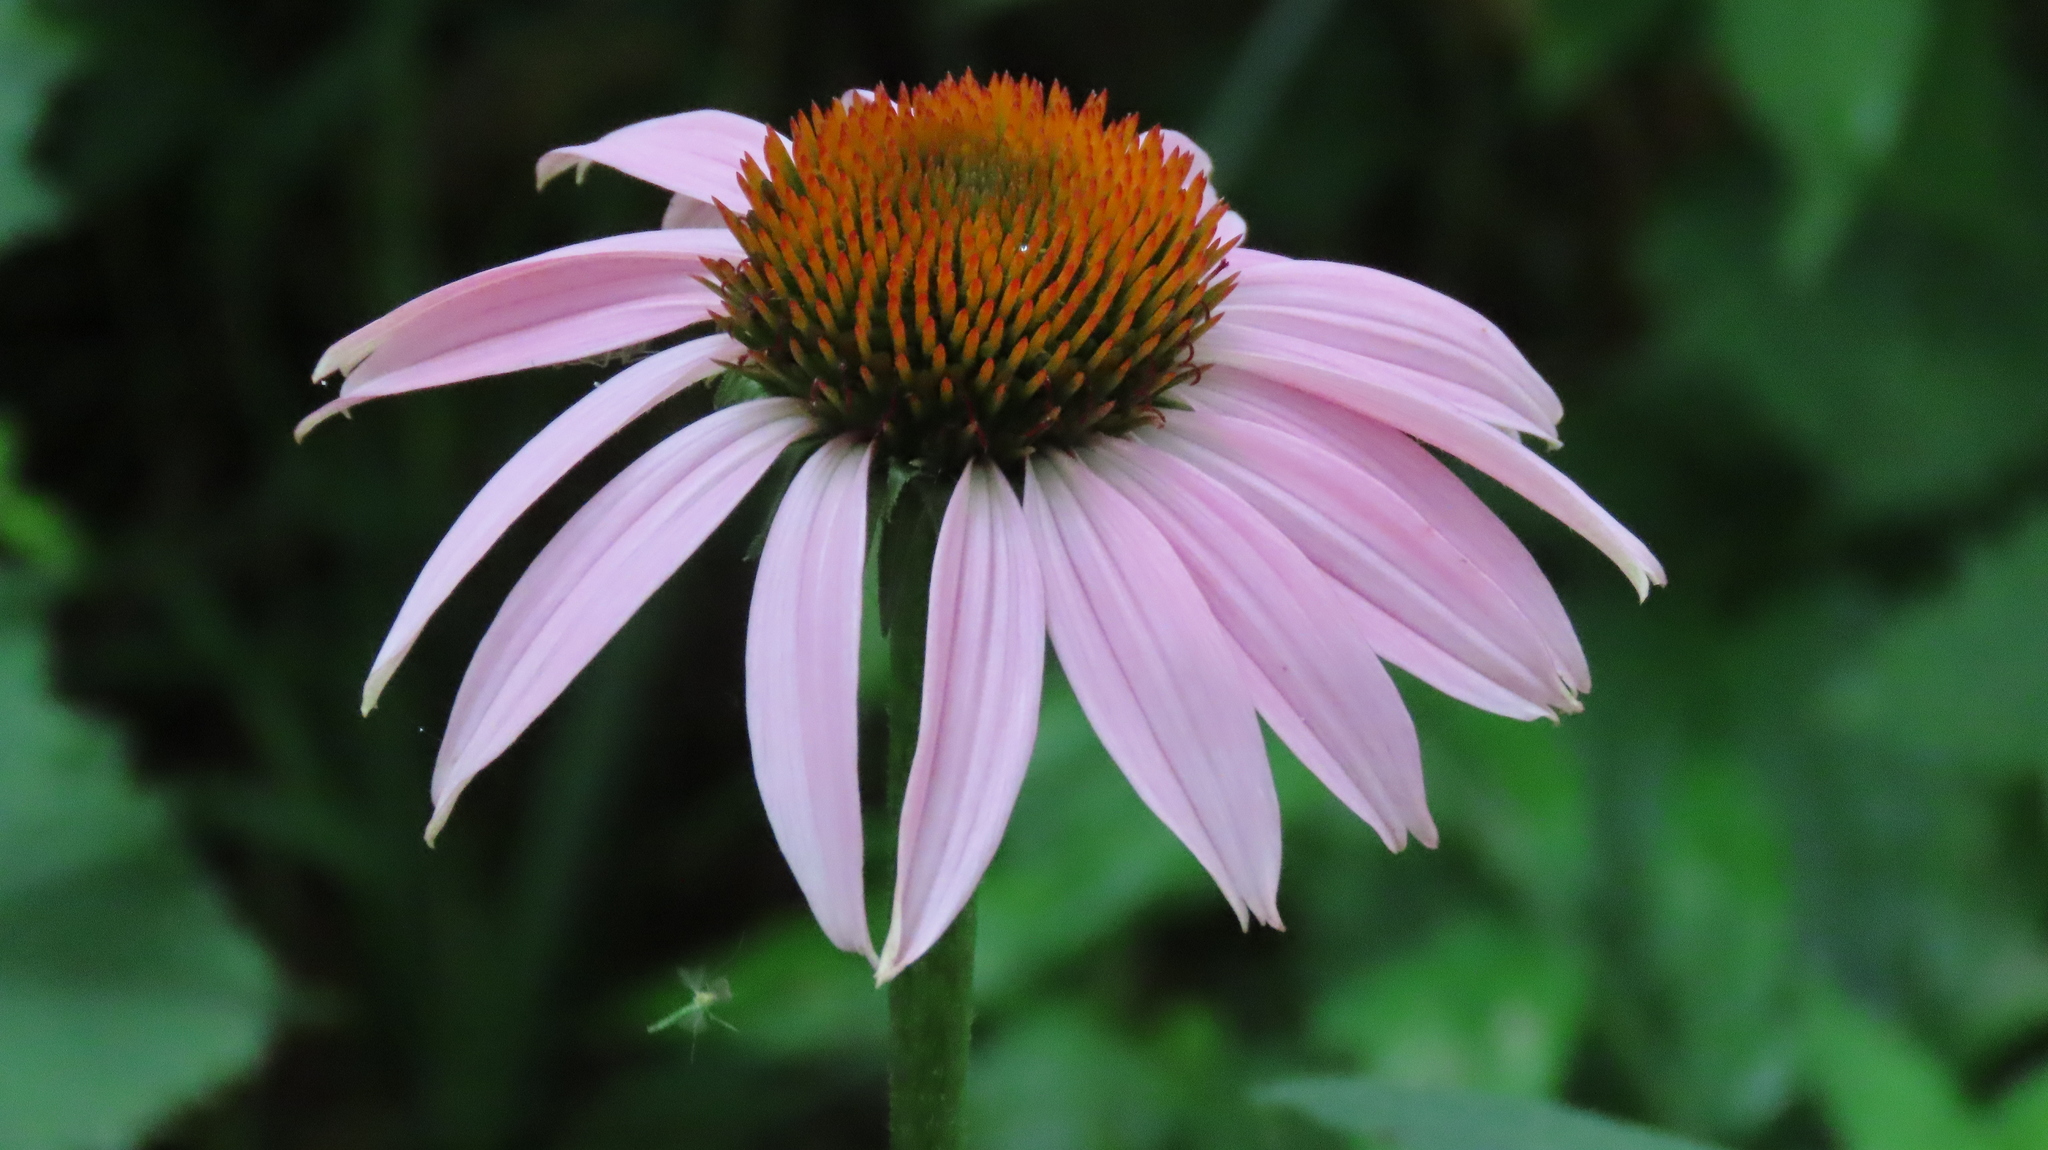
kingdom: Plantae
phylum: Tracheophyta
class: Magnoliopsida
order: Asterales
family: Asteraceae
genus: Echinacea
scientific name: Echinacea purpurea
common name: Broad-leaved purple coneflower
